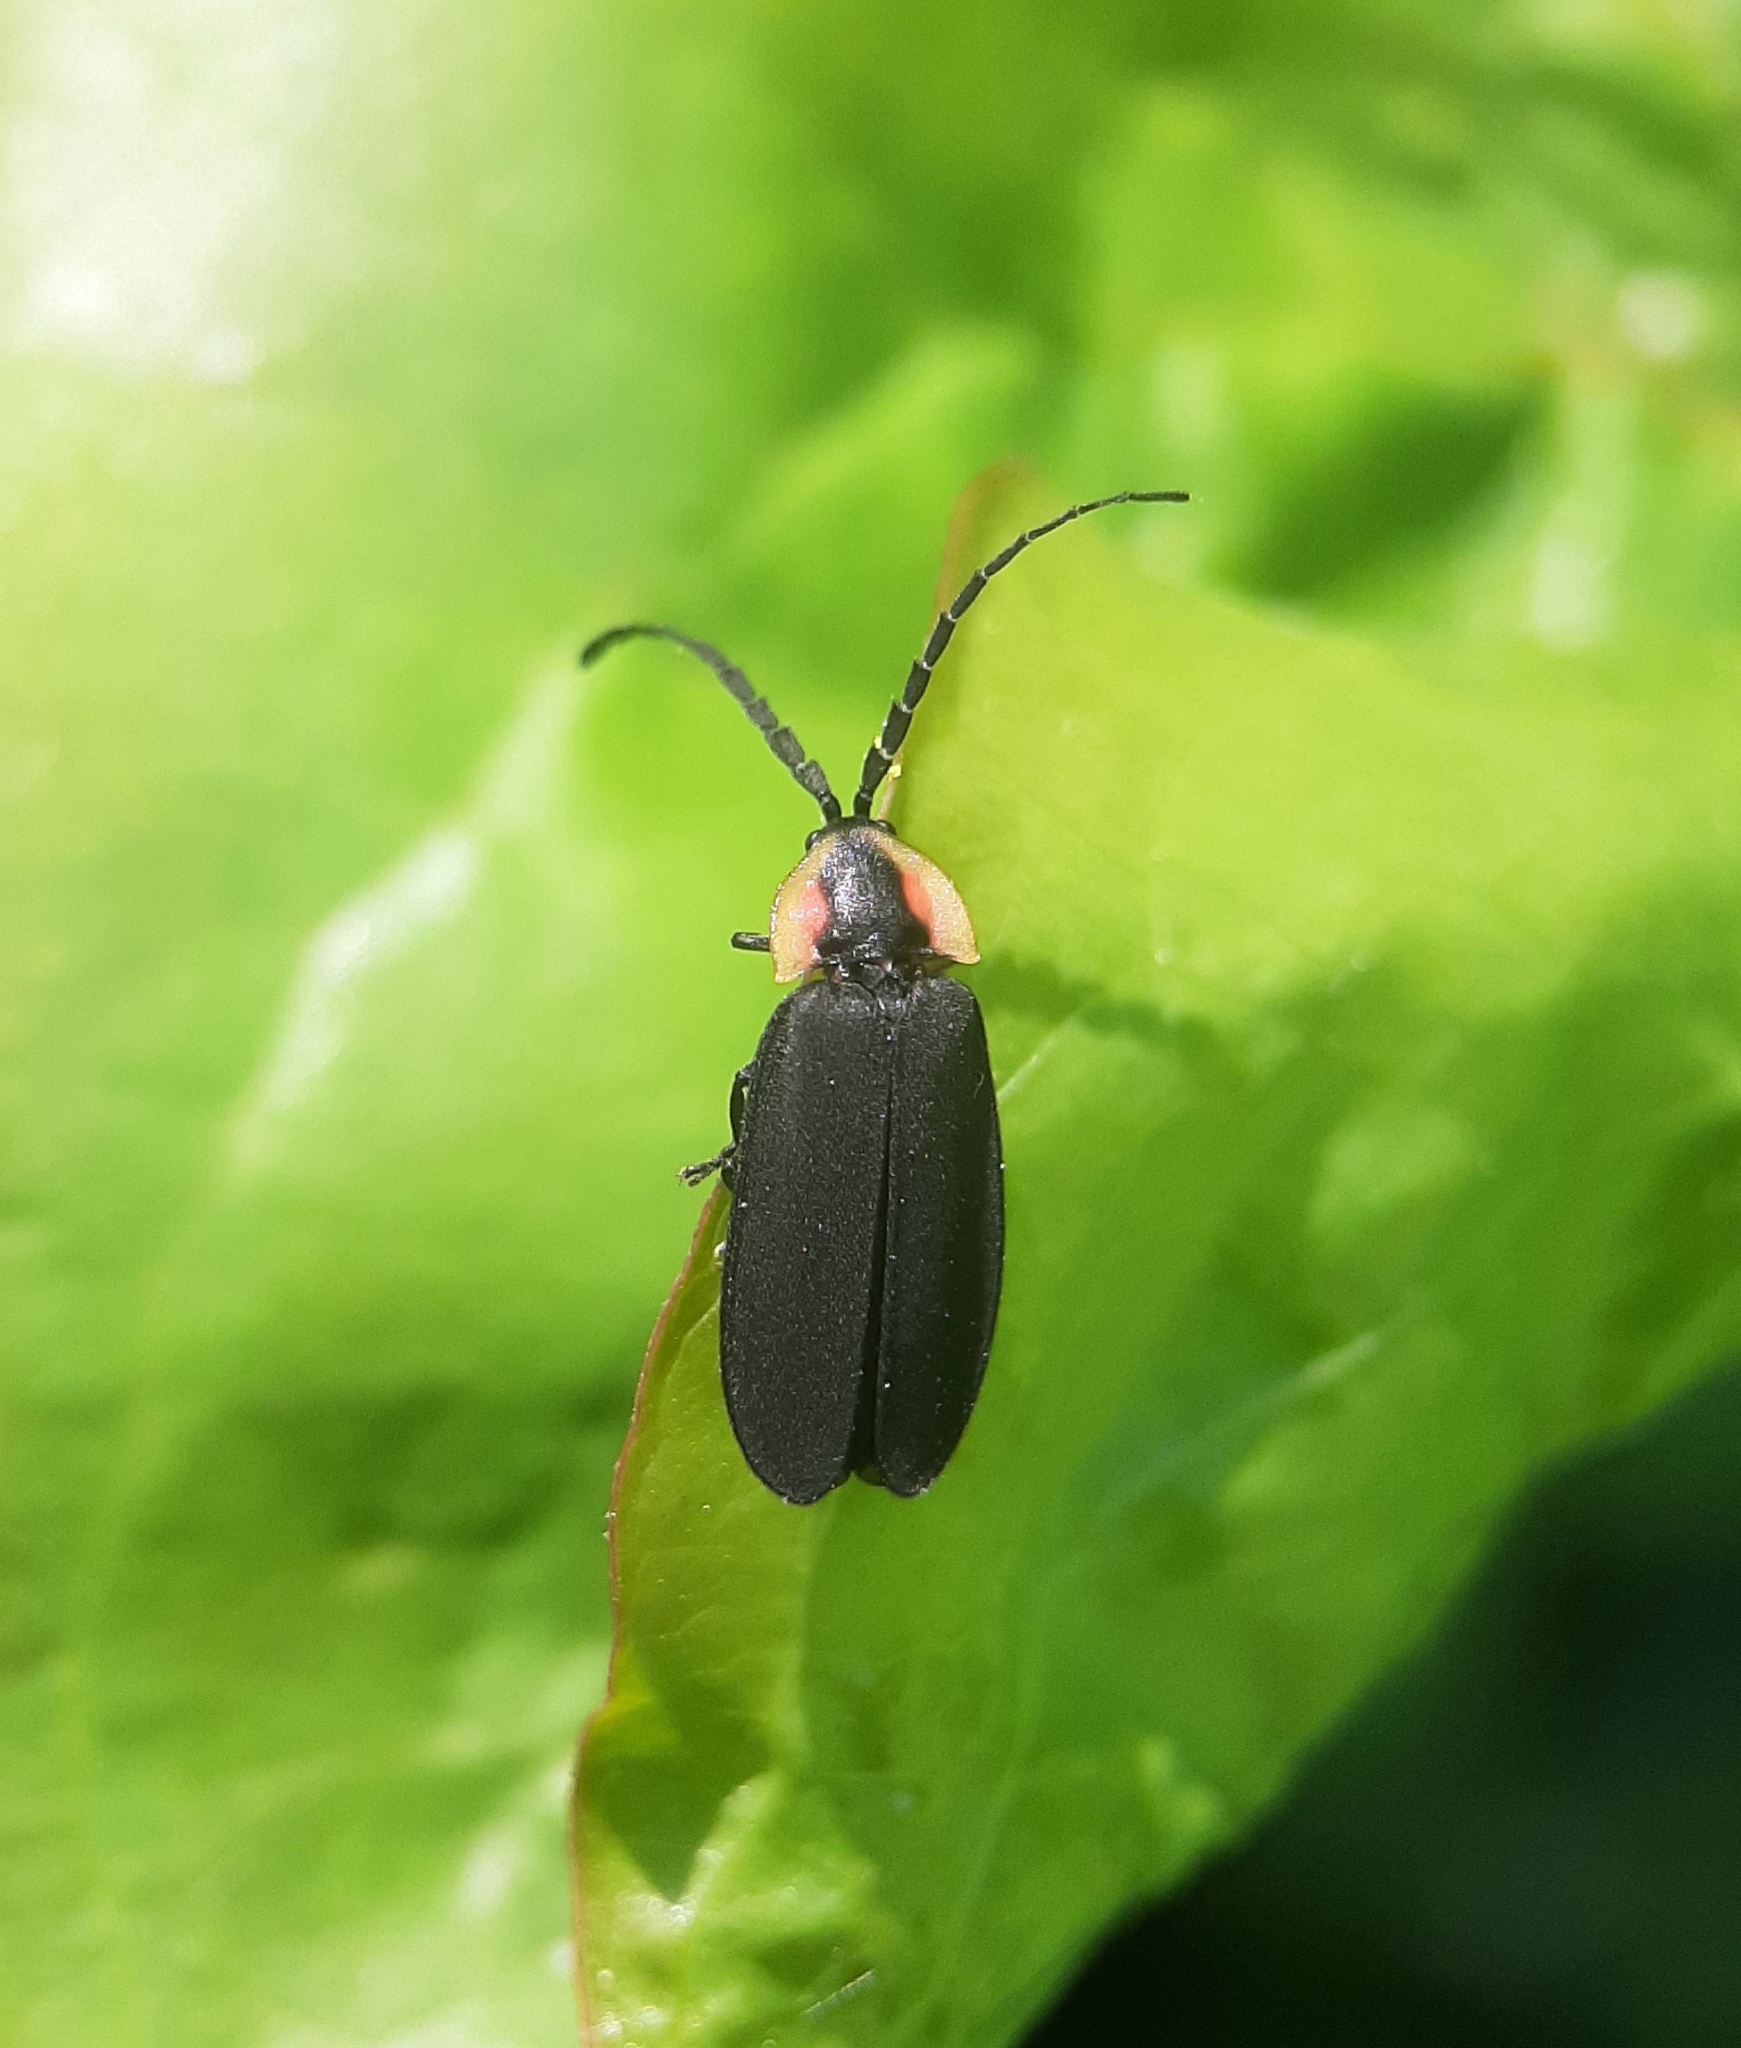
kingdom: Animalia
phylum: Arthropoda
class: Insecta
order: Coleoptera
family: Lampyridae
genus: Lucidota
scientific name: Lucidota atra
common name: Black firefly
